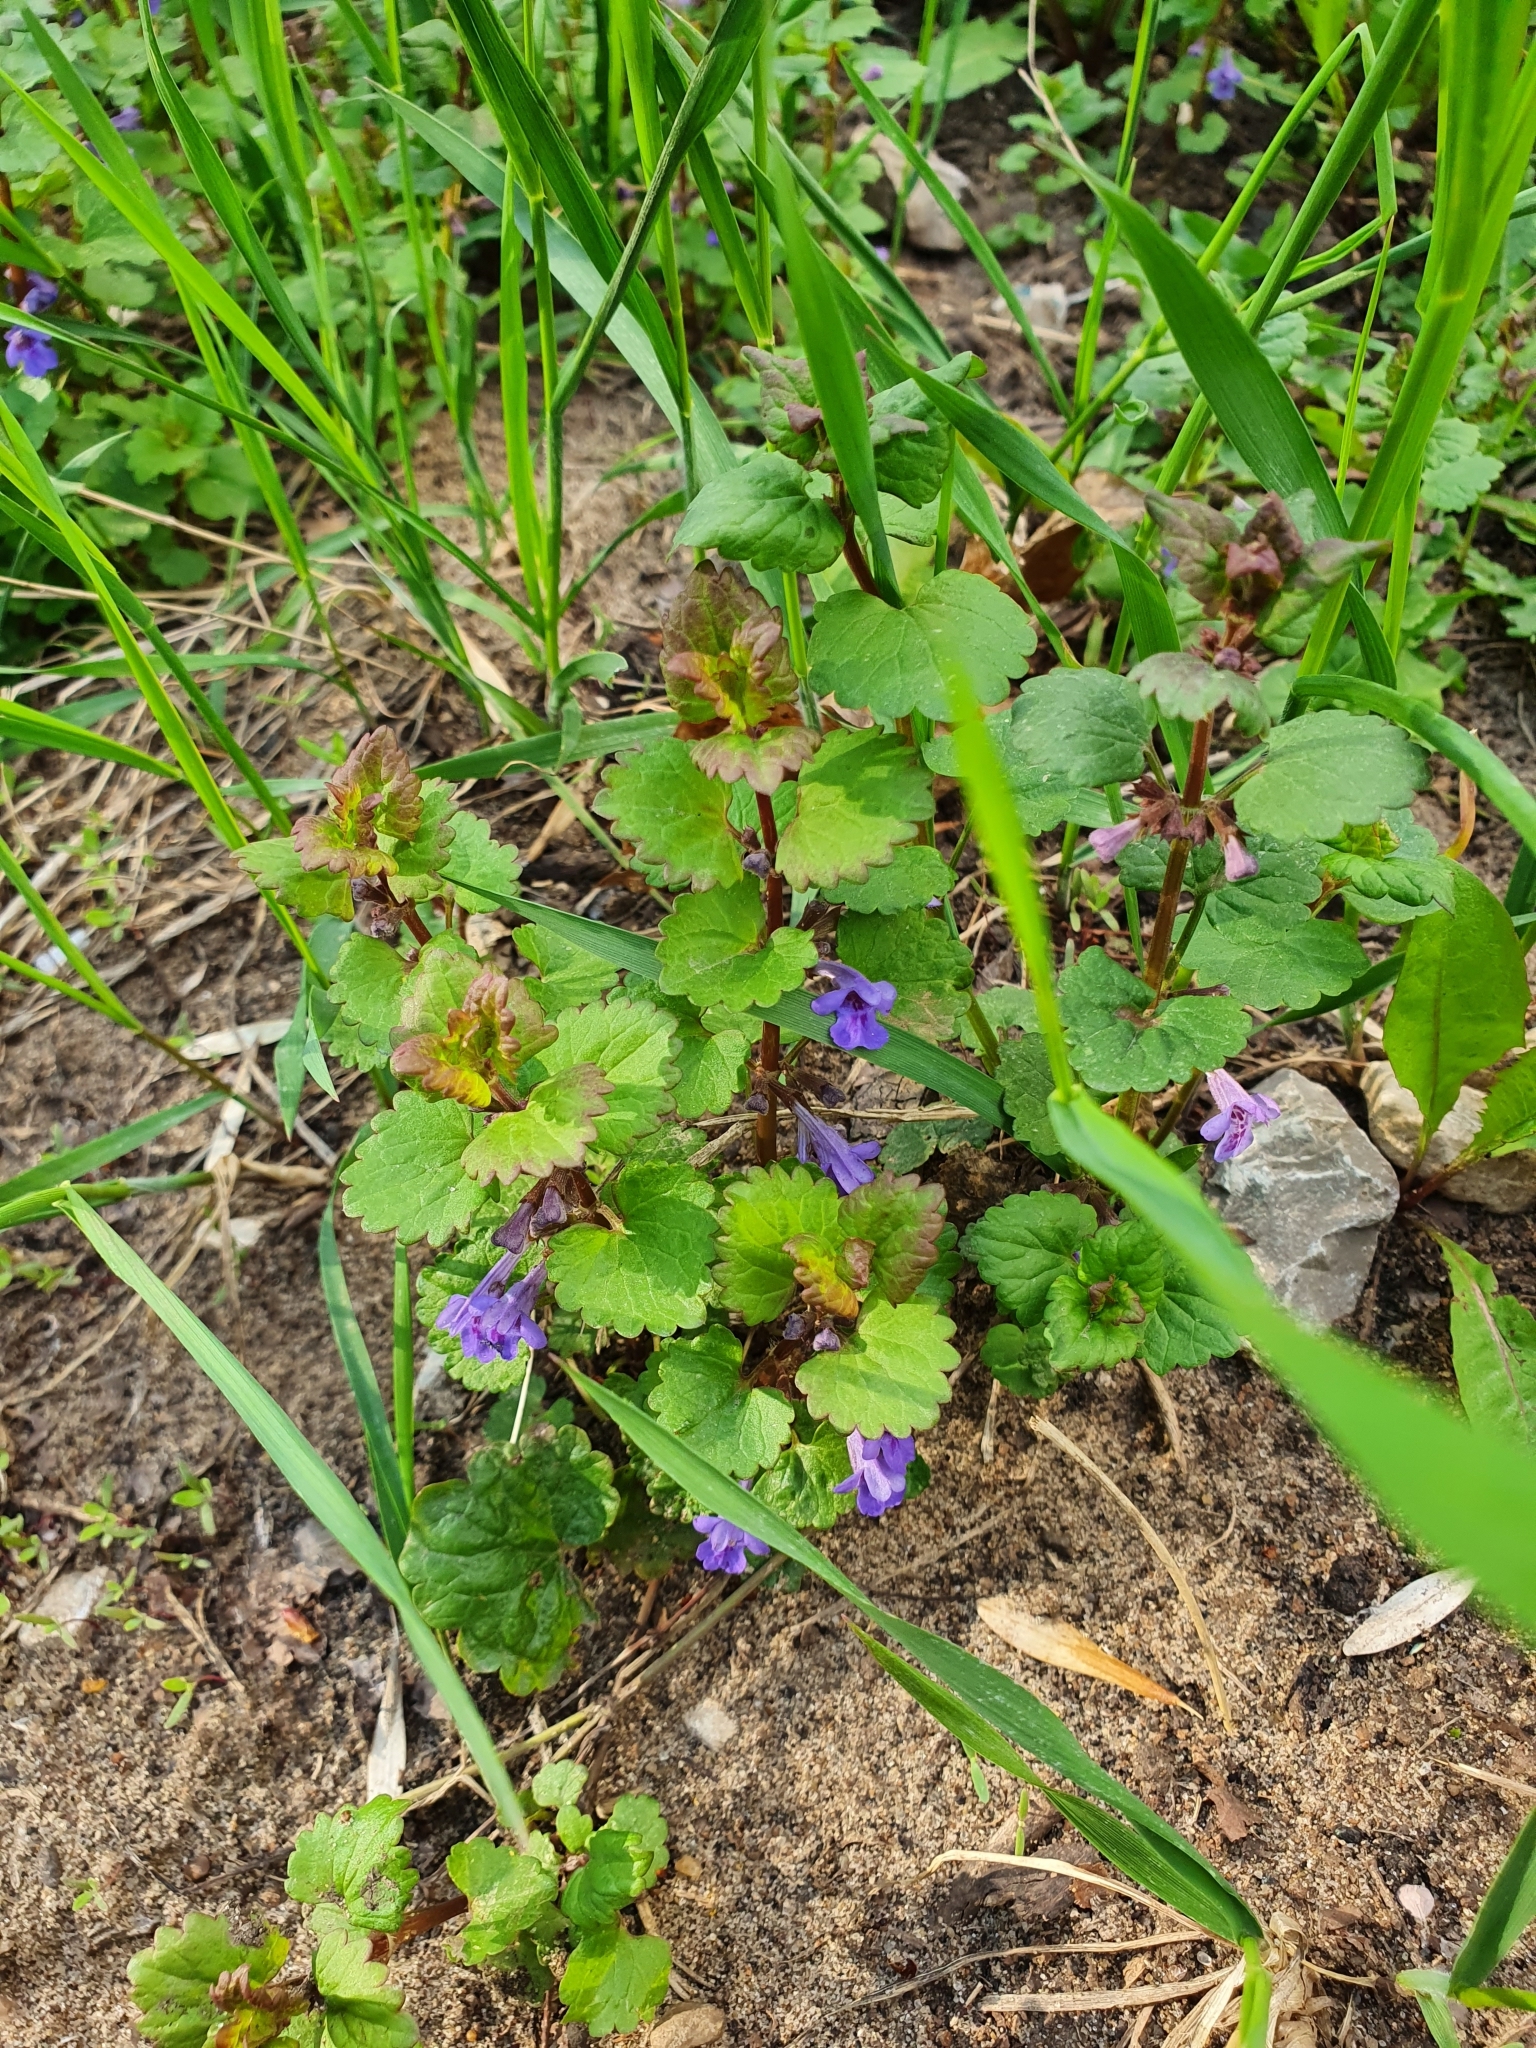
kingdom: Plantae
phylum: Tracheophyta
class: Magnoliopsida
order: Lamiales
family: Lamiaceae
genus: Glechoma
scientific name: Glechoma hederacea
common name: Ground ivy
